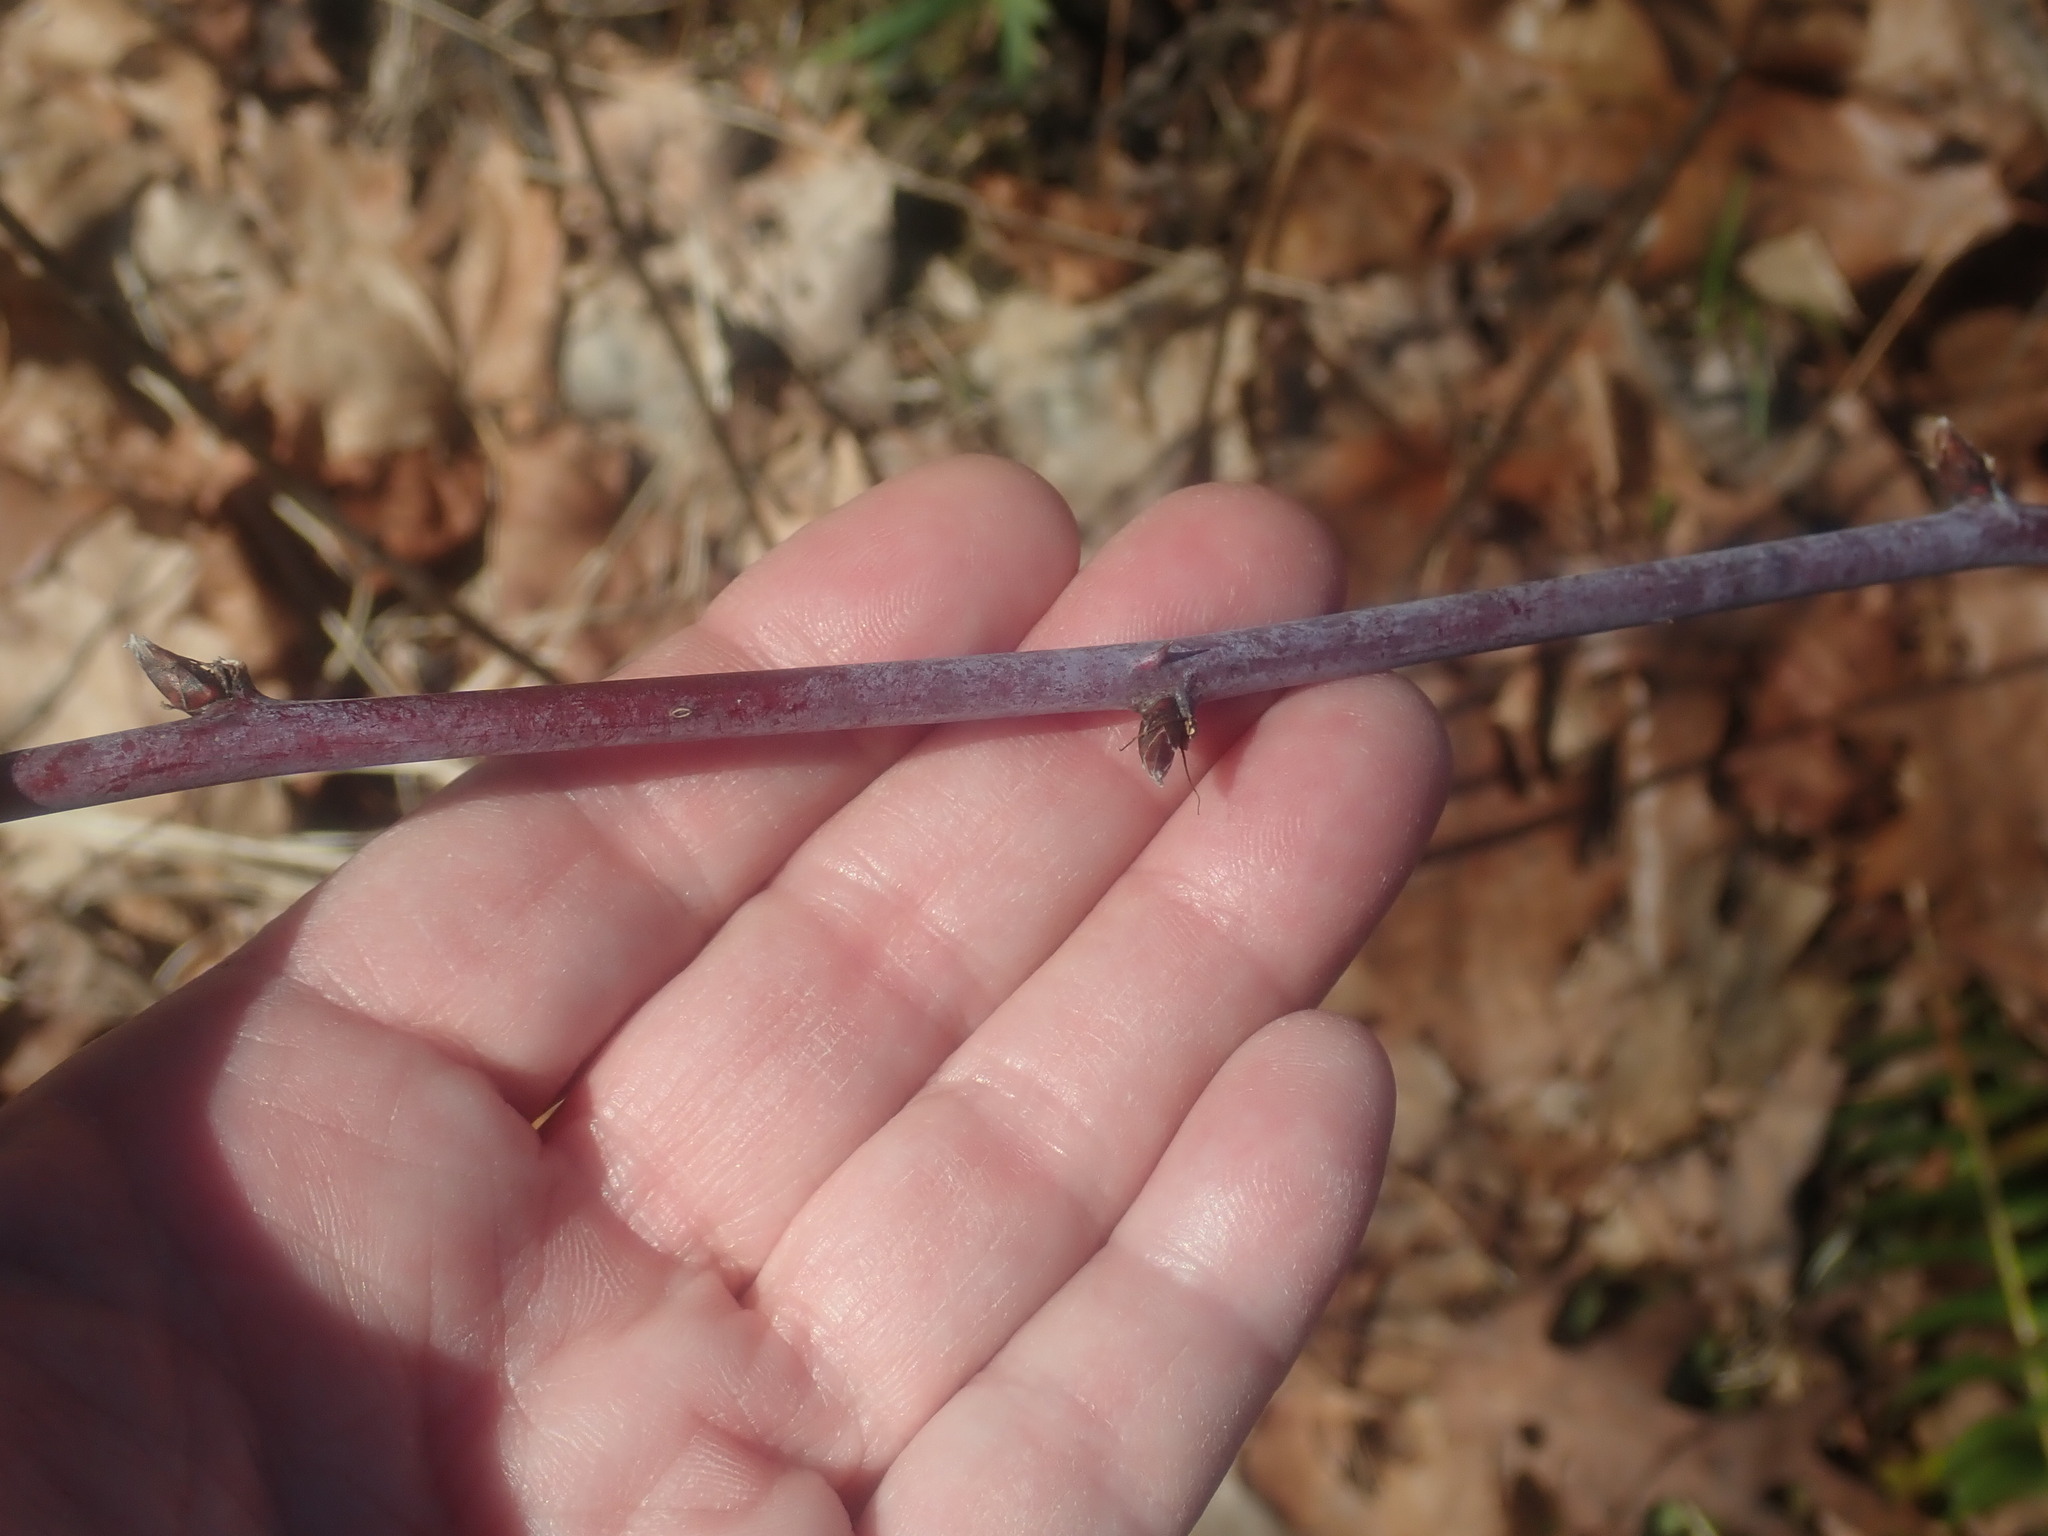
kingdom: Plantae
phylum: Tracheophyta
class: Magnoliopsida
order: Rosales
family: Rosaceae
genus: Rubus
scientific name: Rubus occidentalis
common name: Black raspberry
